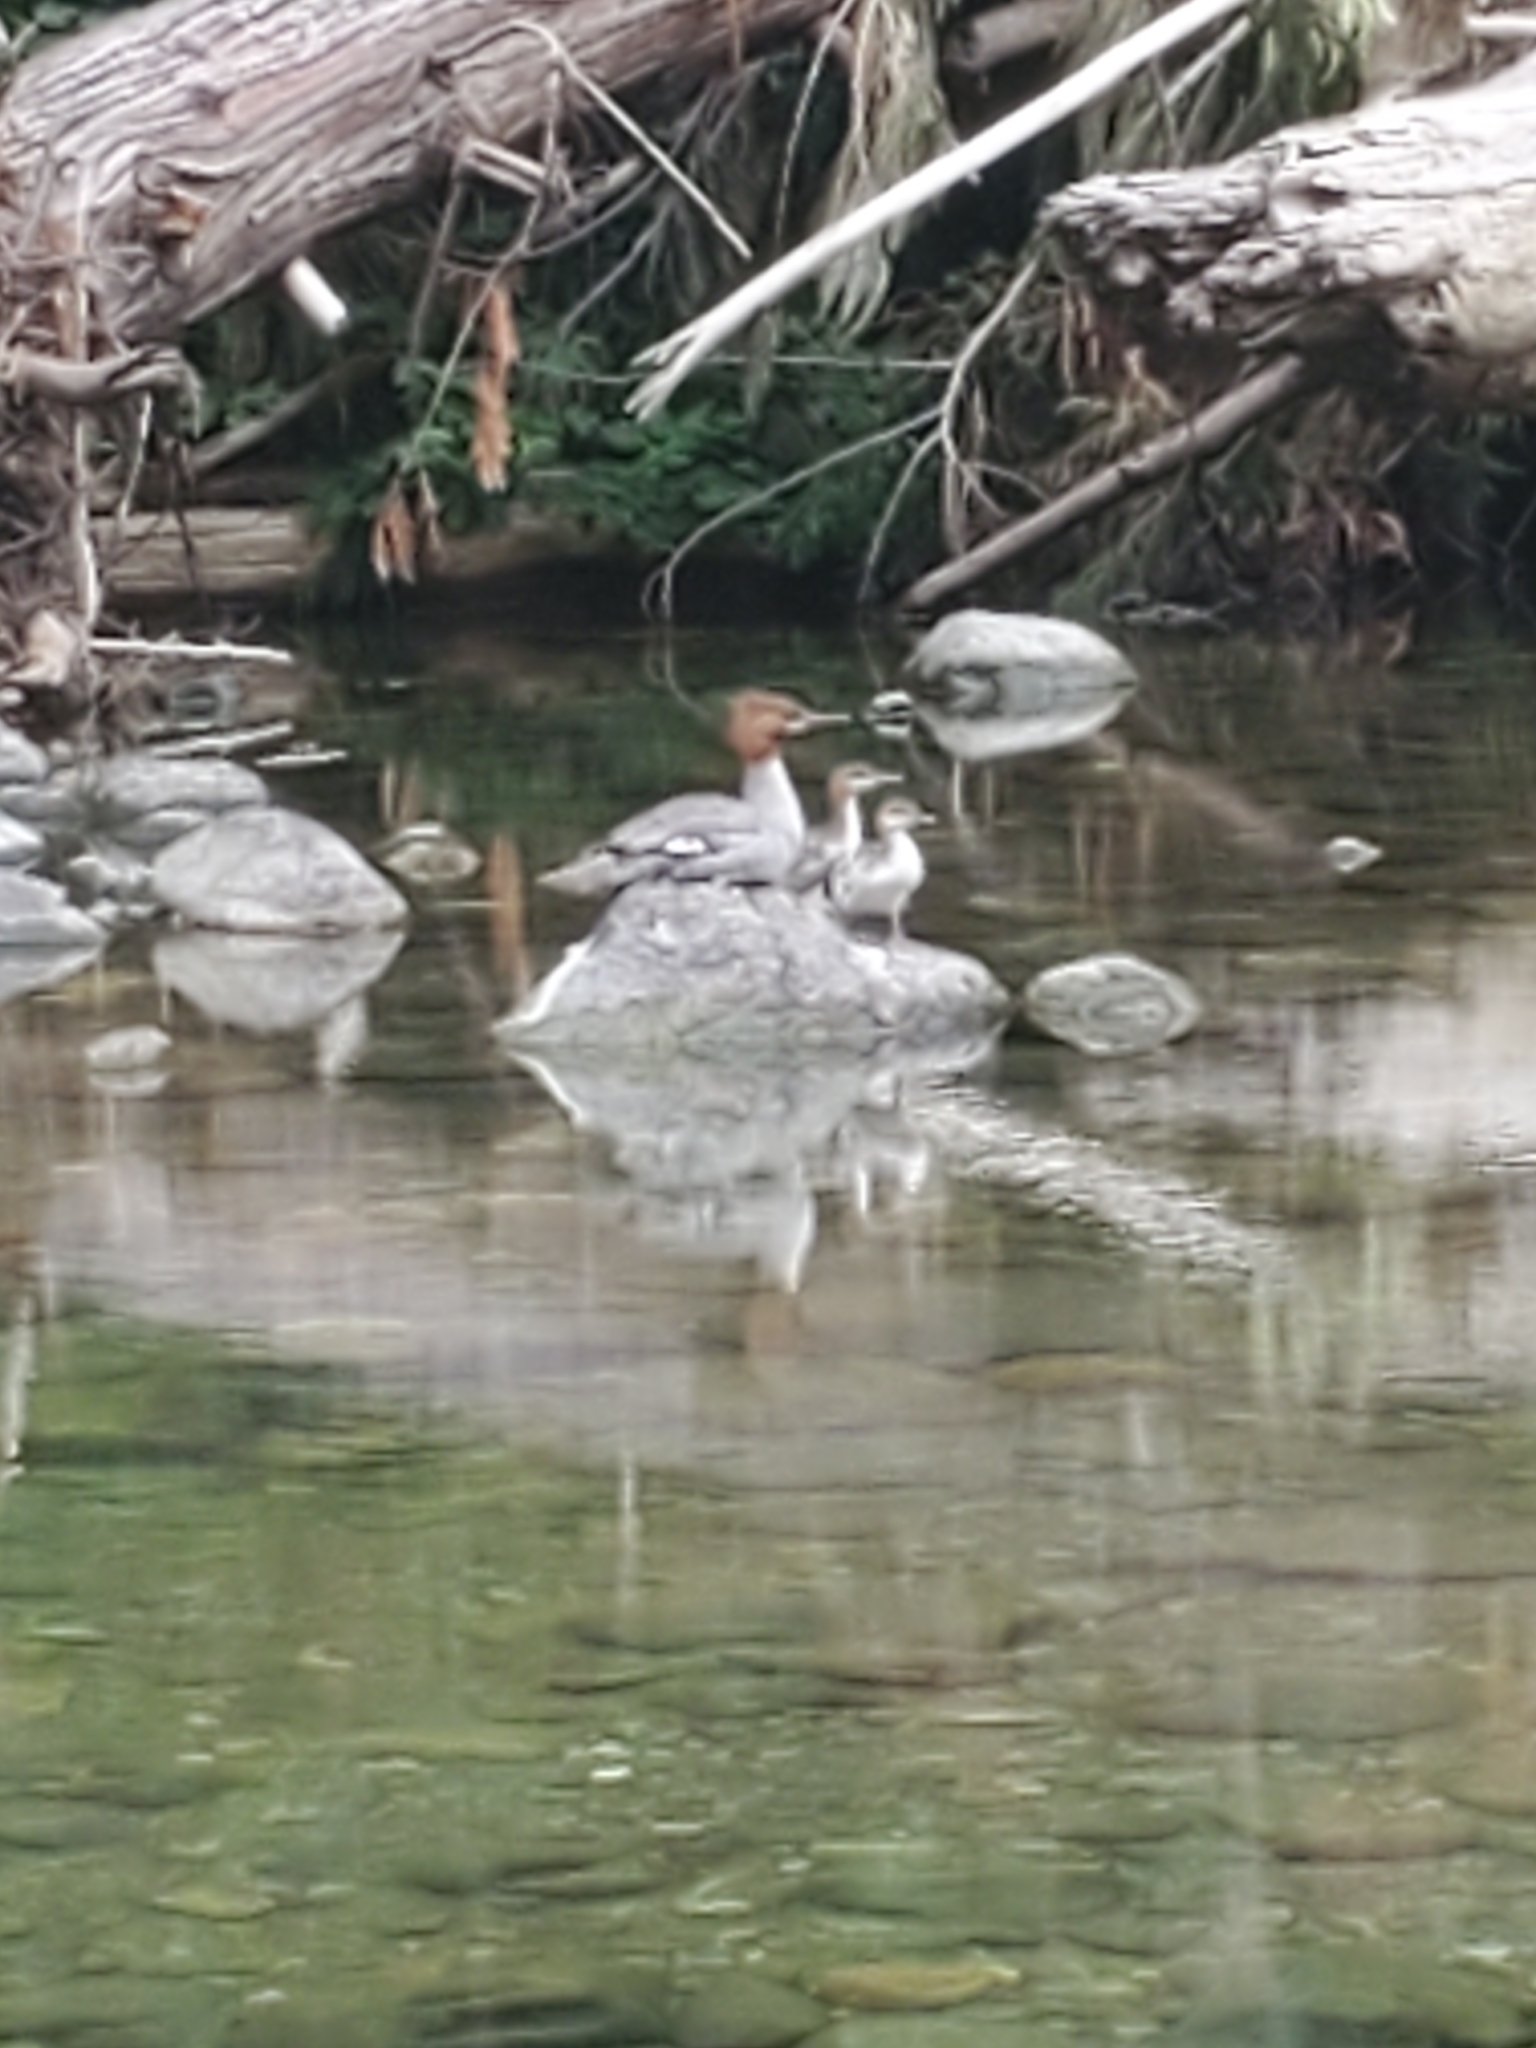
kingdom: Animalia
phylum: Chordata
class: Aves
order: Anseriformes
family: Anatidae
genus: Mergus
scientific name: Mergus merganser
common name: Common merganser
